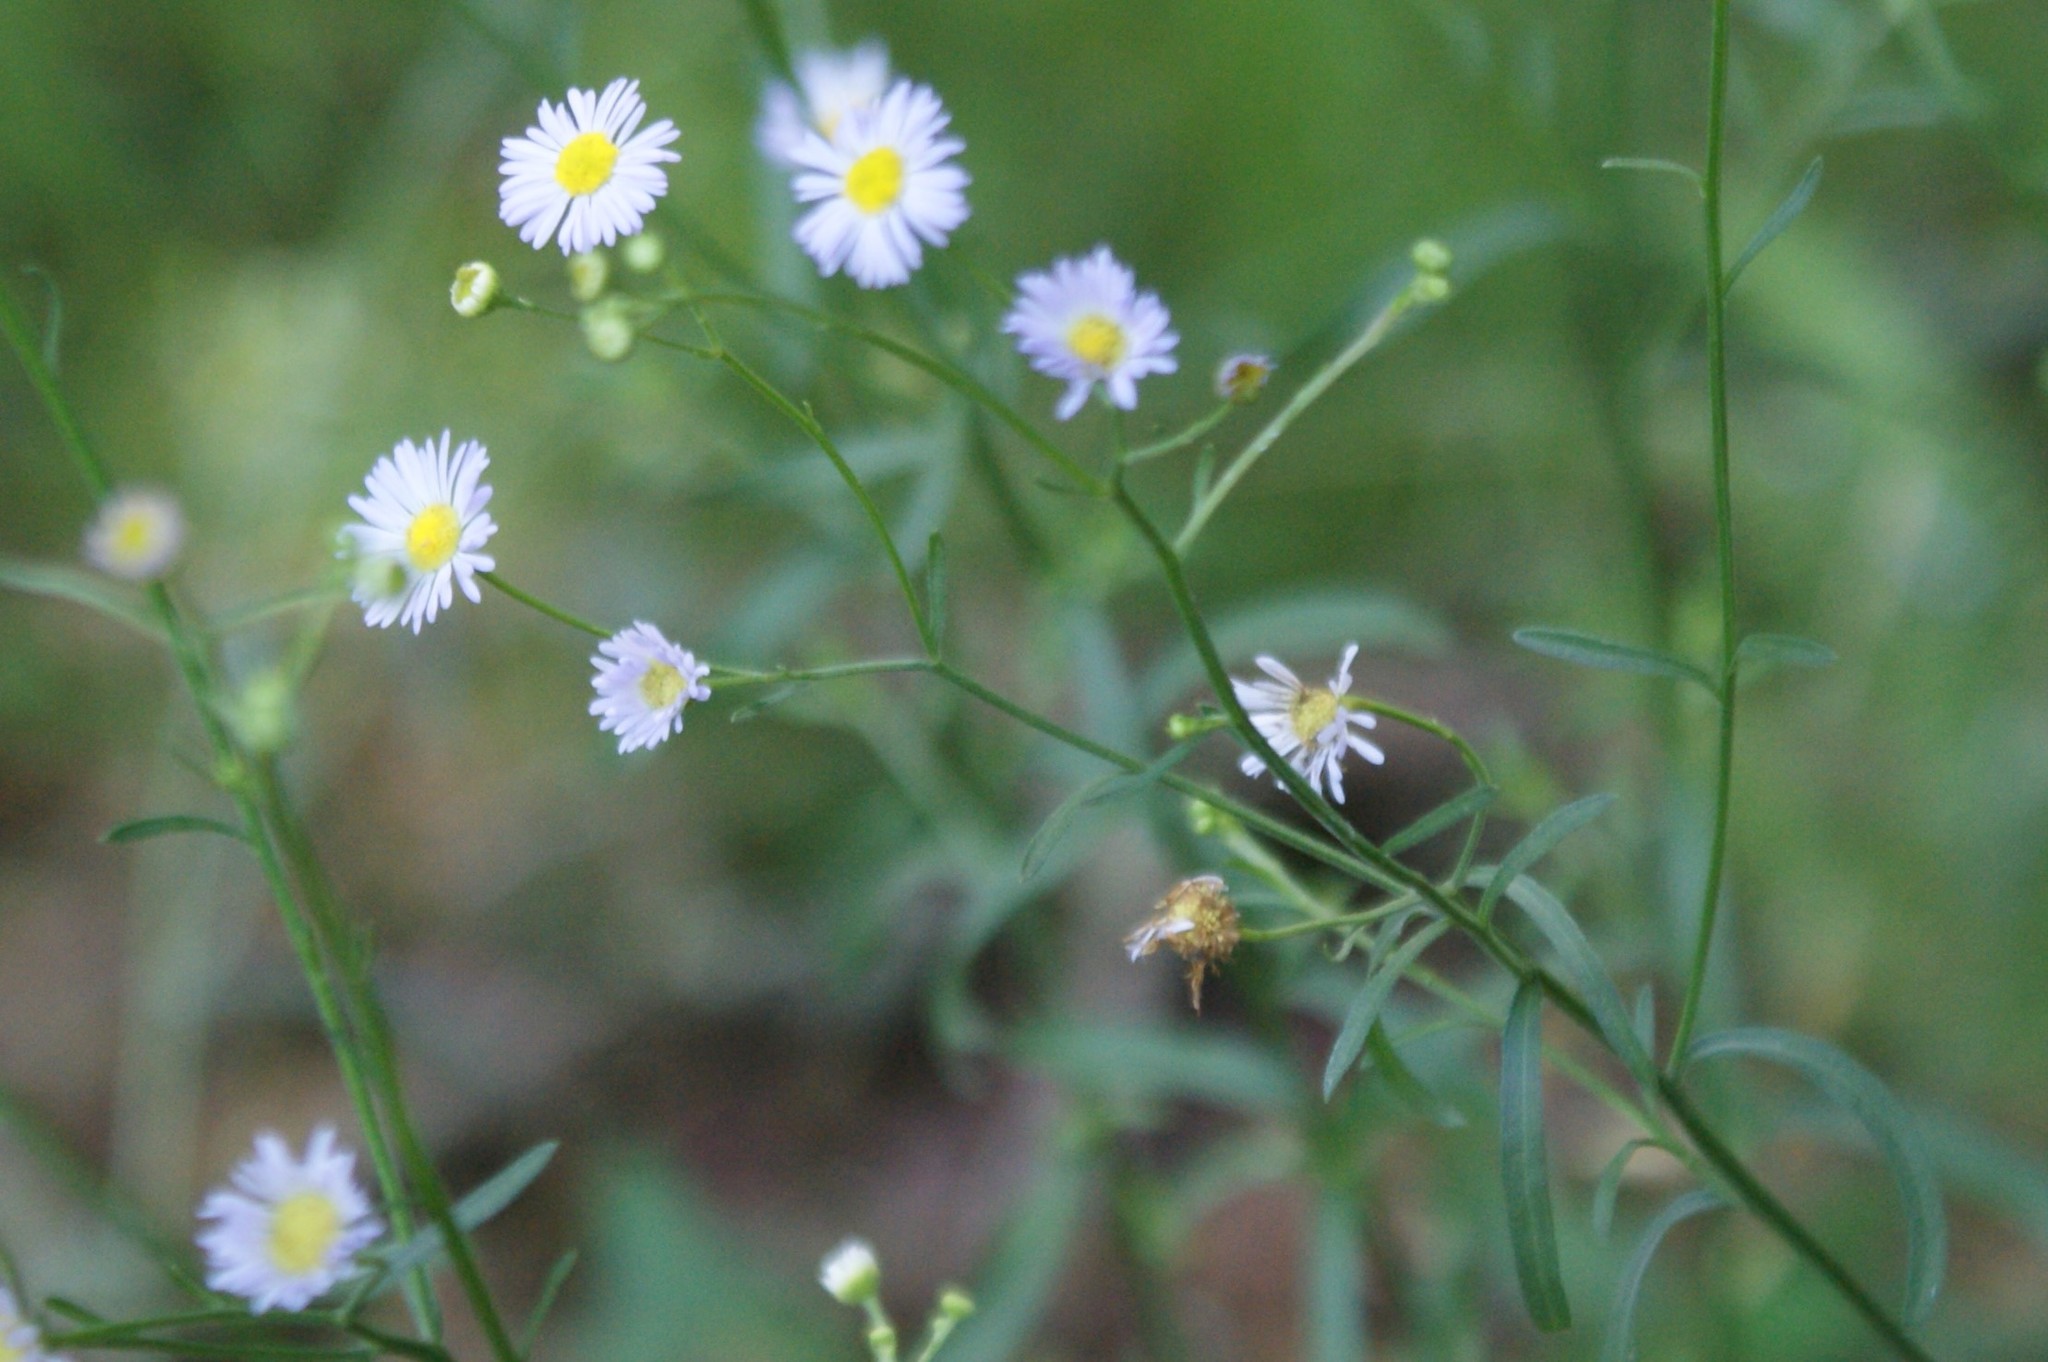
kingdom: Plantae
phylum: Tracheophyta
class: Magnoliopsida
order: Asterales
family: Asteraceae
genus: Erigeron
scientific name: Erigeron strigosus
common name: Common eastern fleabane
